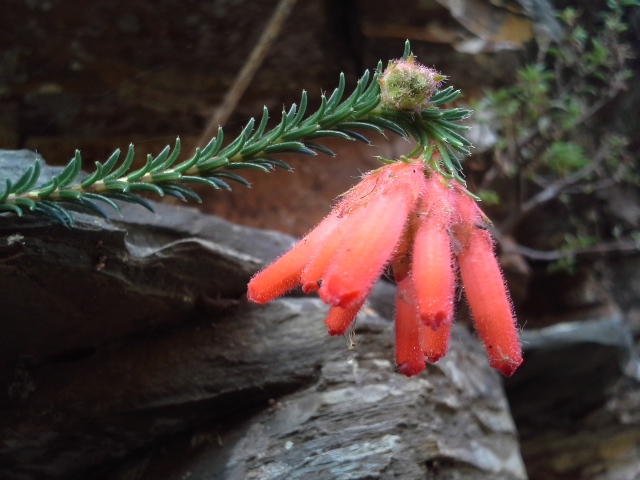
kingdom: Plantae
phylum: Tracheophyta
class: Magnoliopsida
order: Ericales
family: Ericaceae
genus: Erica
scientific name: Erica cerinthoides
